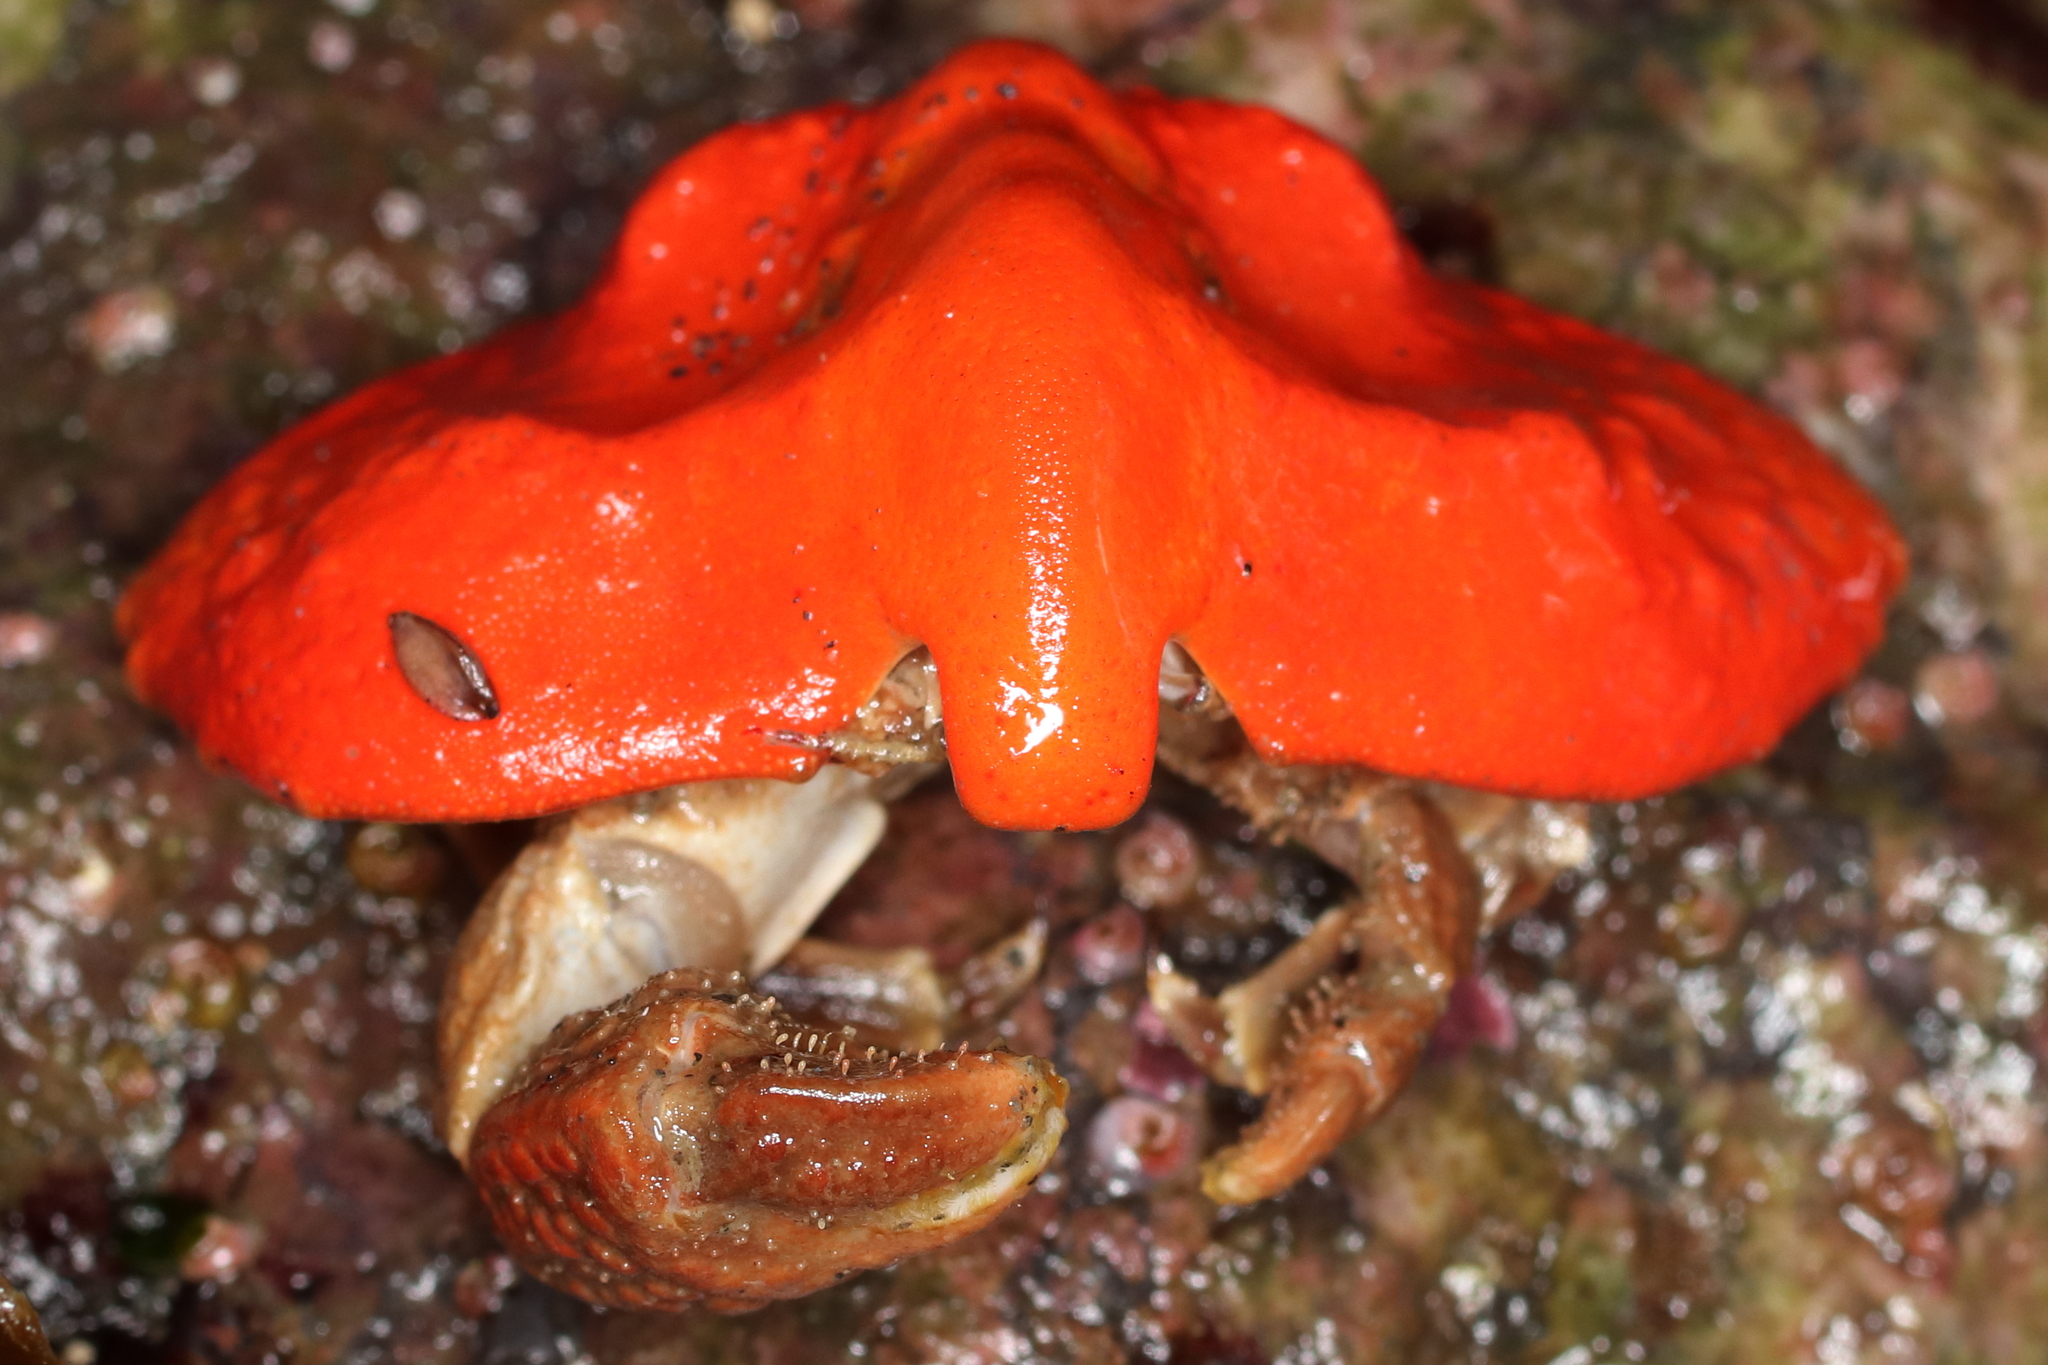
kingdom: Animalia
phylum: Arthropoda
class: Malacostraca
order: Decapoda
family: Lithodidae
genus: Cryptolithodes
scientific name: Cryptolithodes typicus
